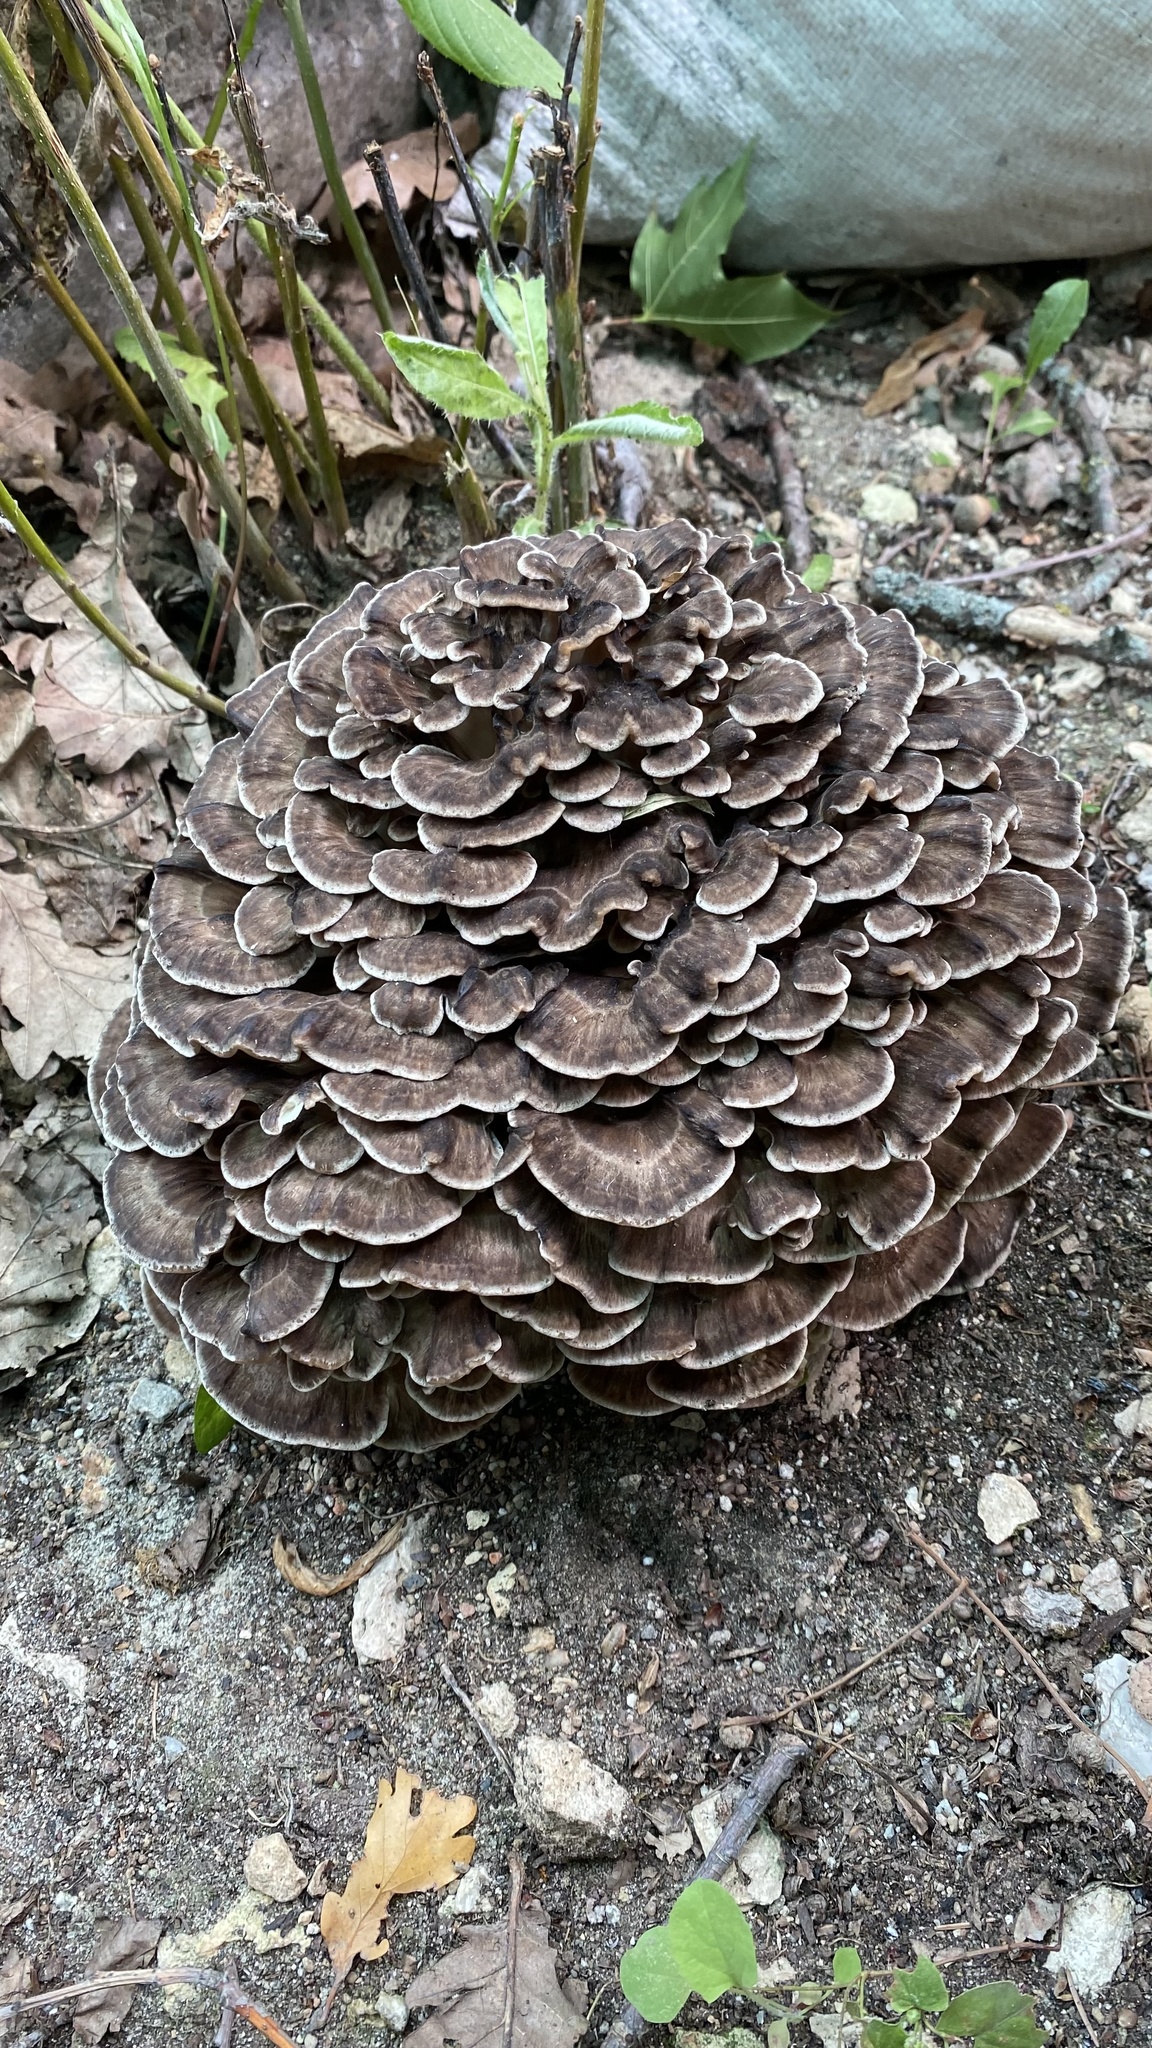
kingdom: Fungi
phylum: Basidiomycota
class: Agaricomycetes
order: Polyporales
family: Grifolaceae
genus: Grifola
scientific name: Grifola frondosa
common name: Hen of the woods
